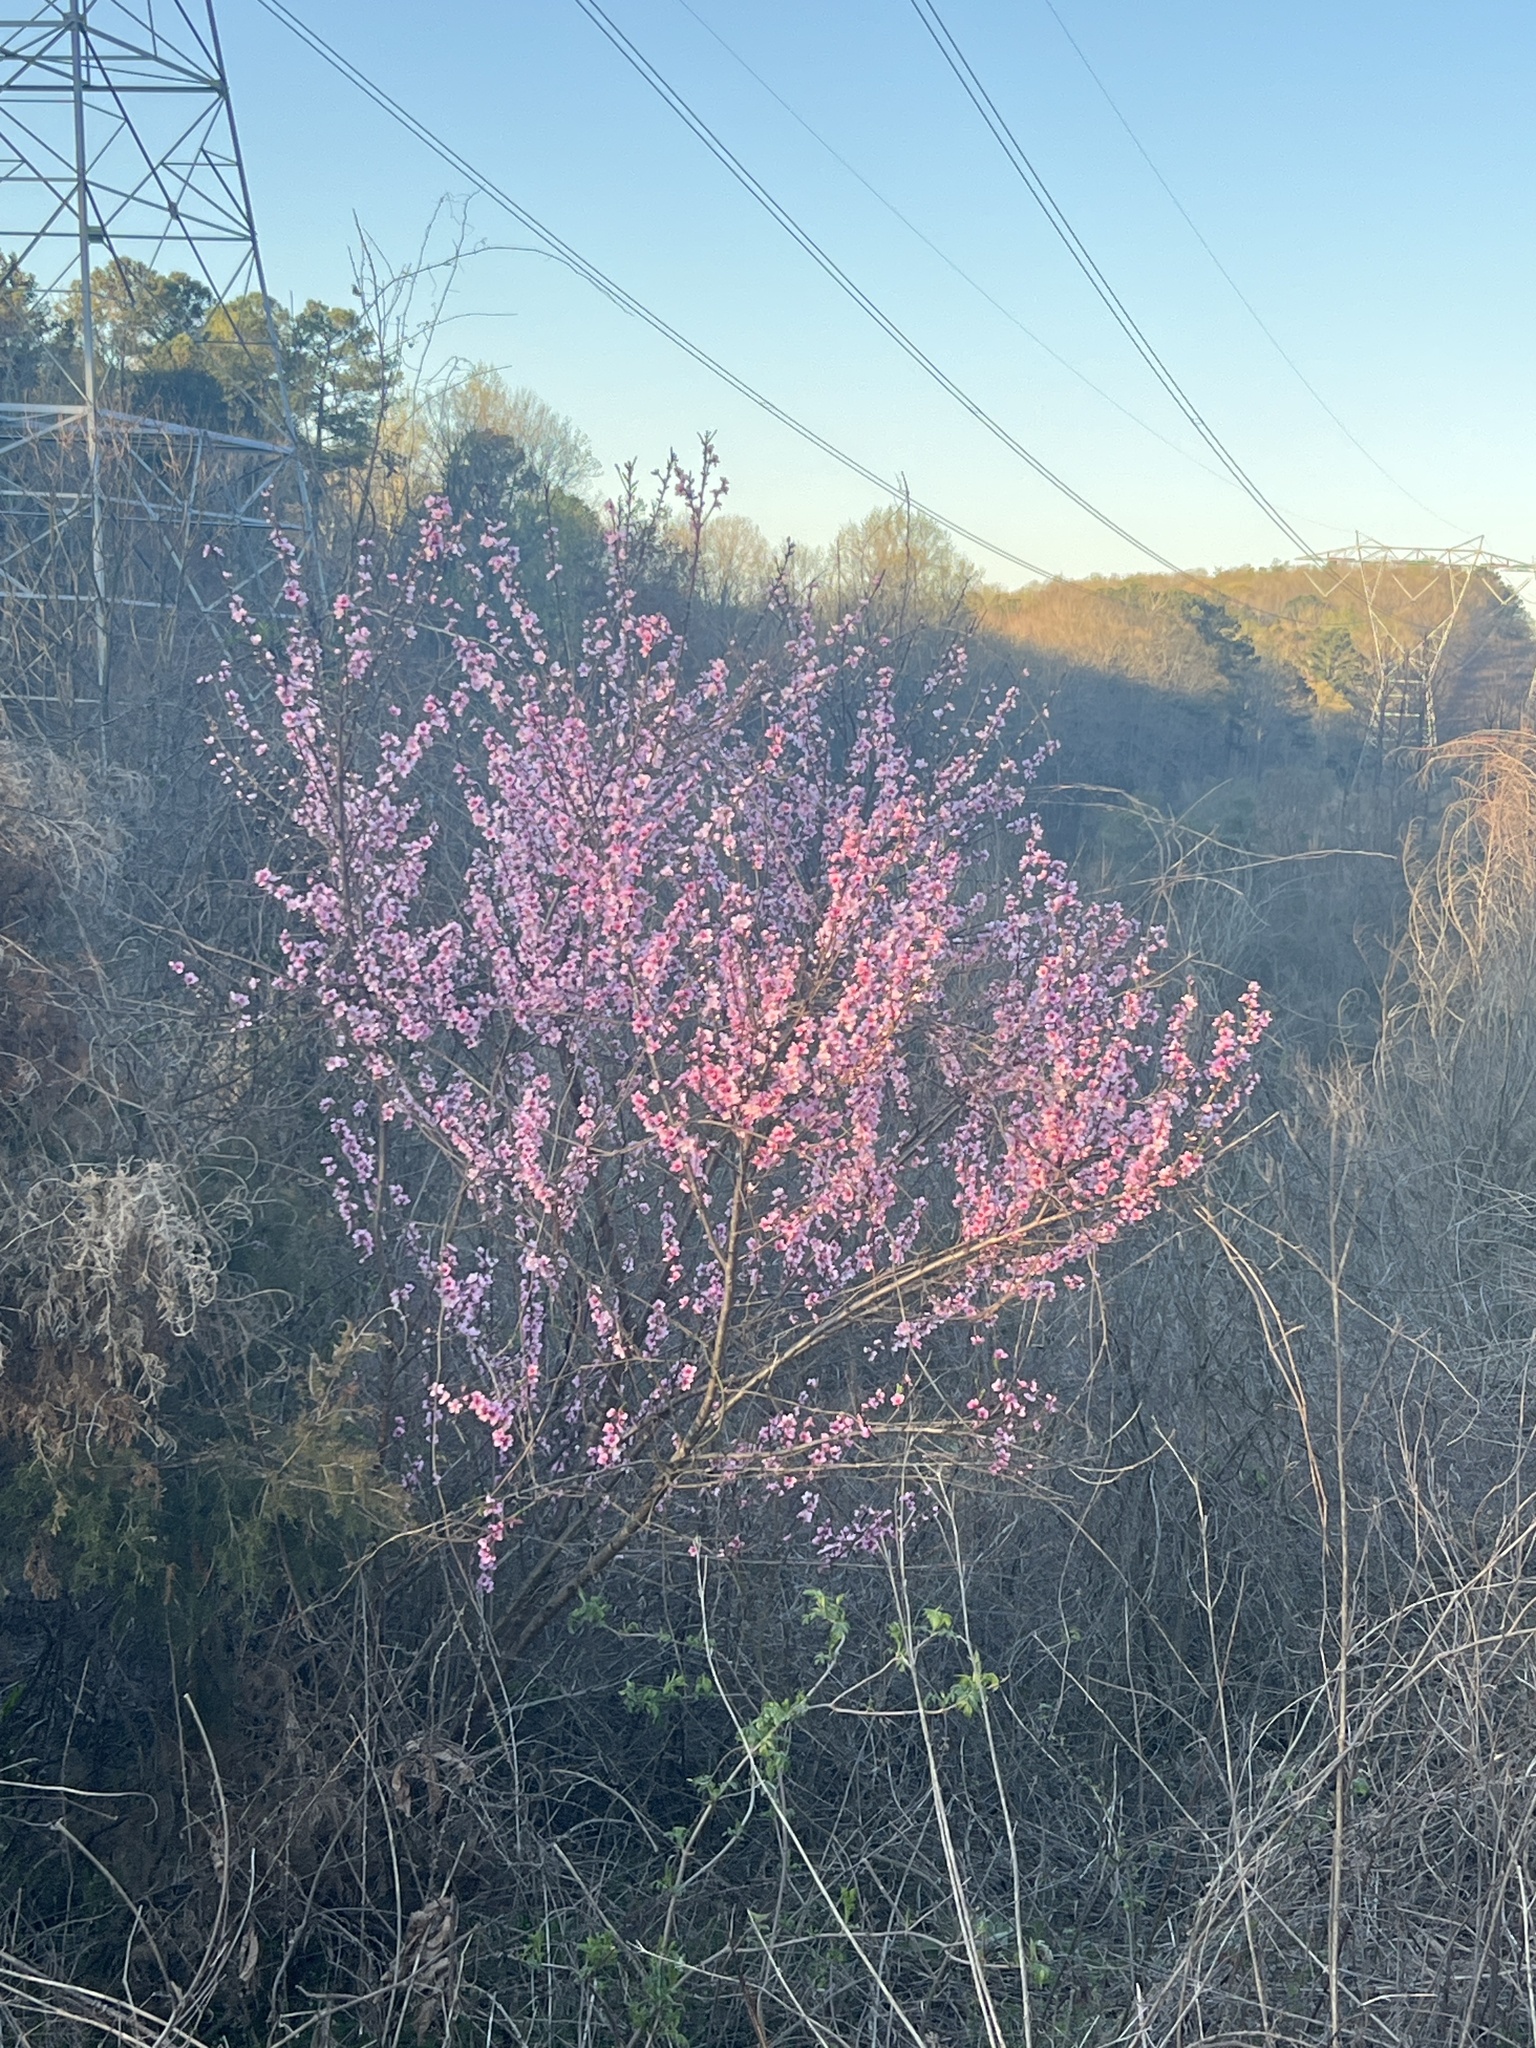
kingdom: Plantae
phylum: Tracheophyta
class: Magnoliopsida
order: Rosales
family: Rosaceae
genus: Prunus
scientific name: Prunus persica
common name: Peach
